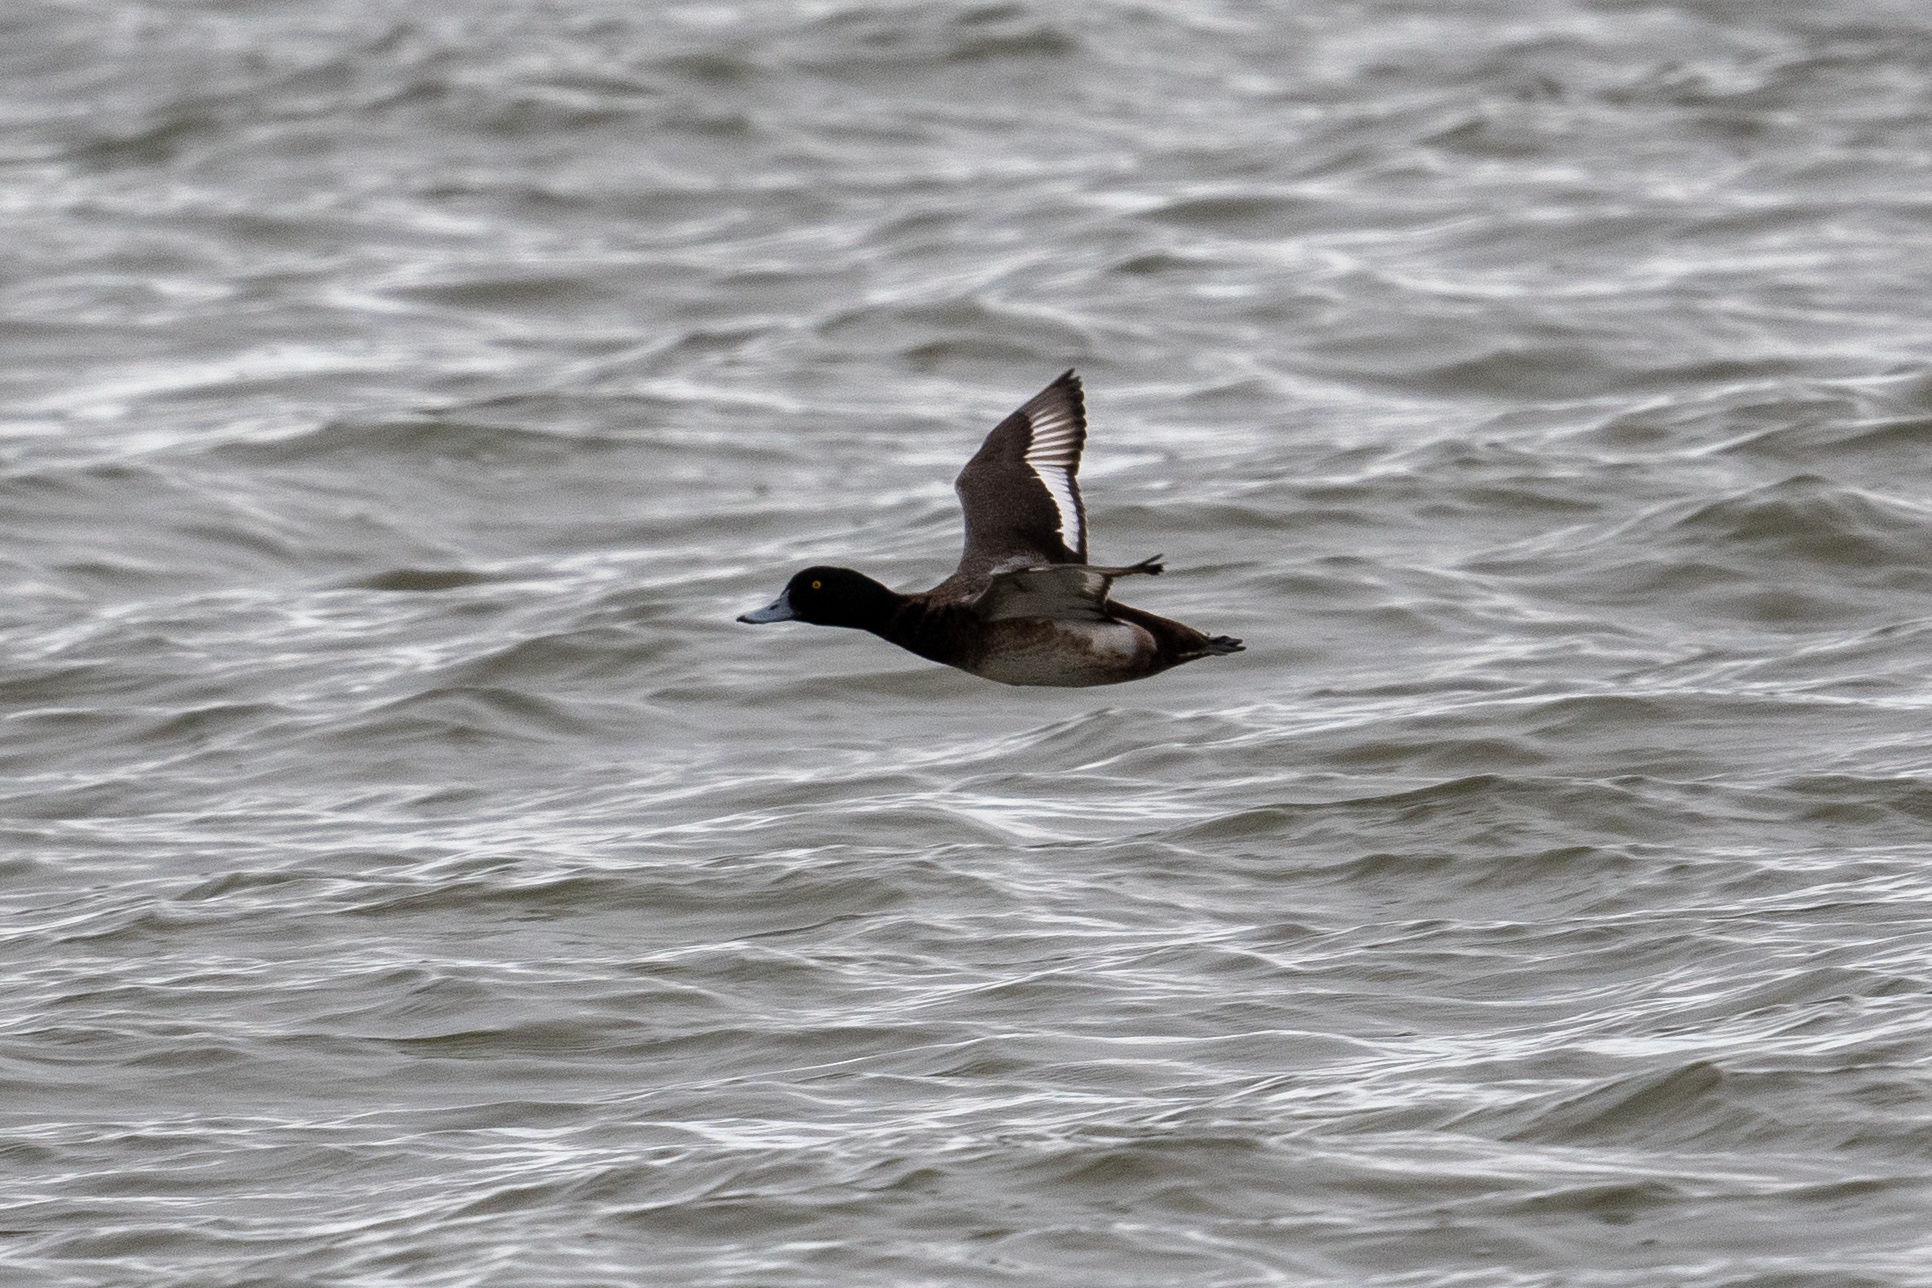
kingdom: Animalia
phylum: Chordata
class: Aves
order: Anseriformes
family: Anatidae
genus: Aythya
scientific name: Aythya marila
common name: Greater scaup
